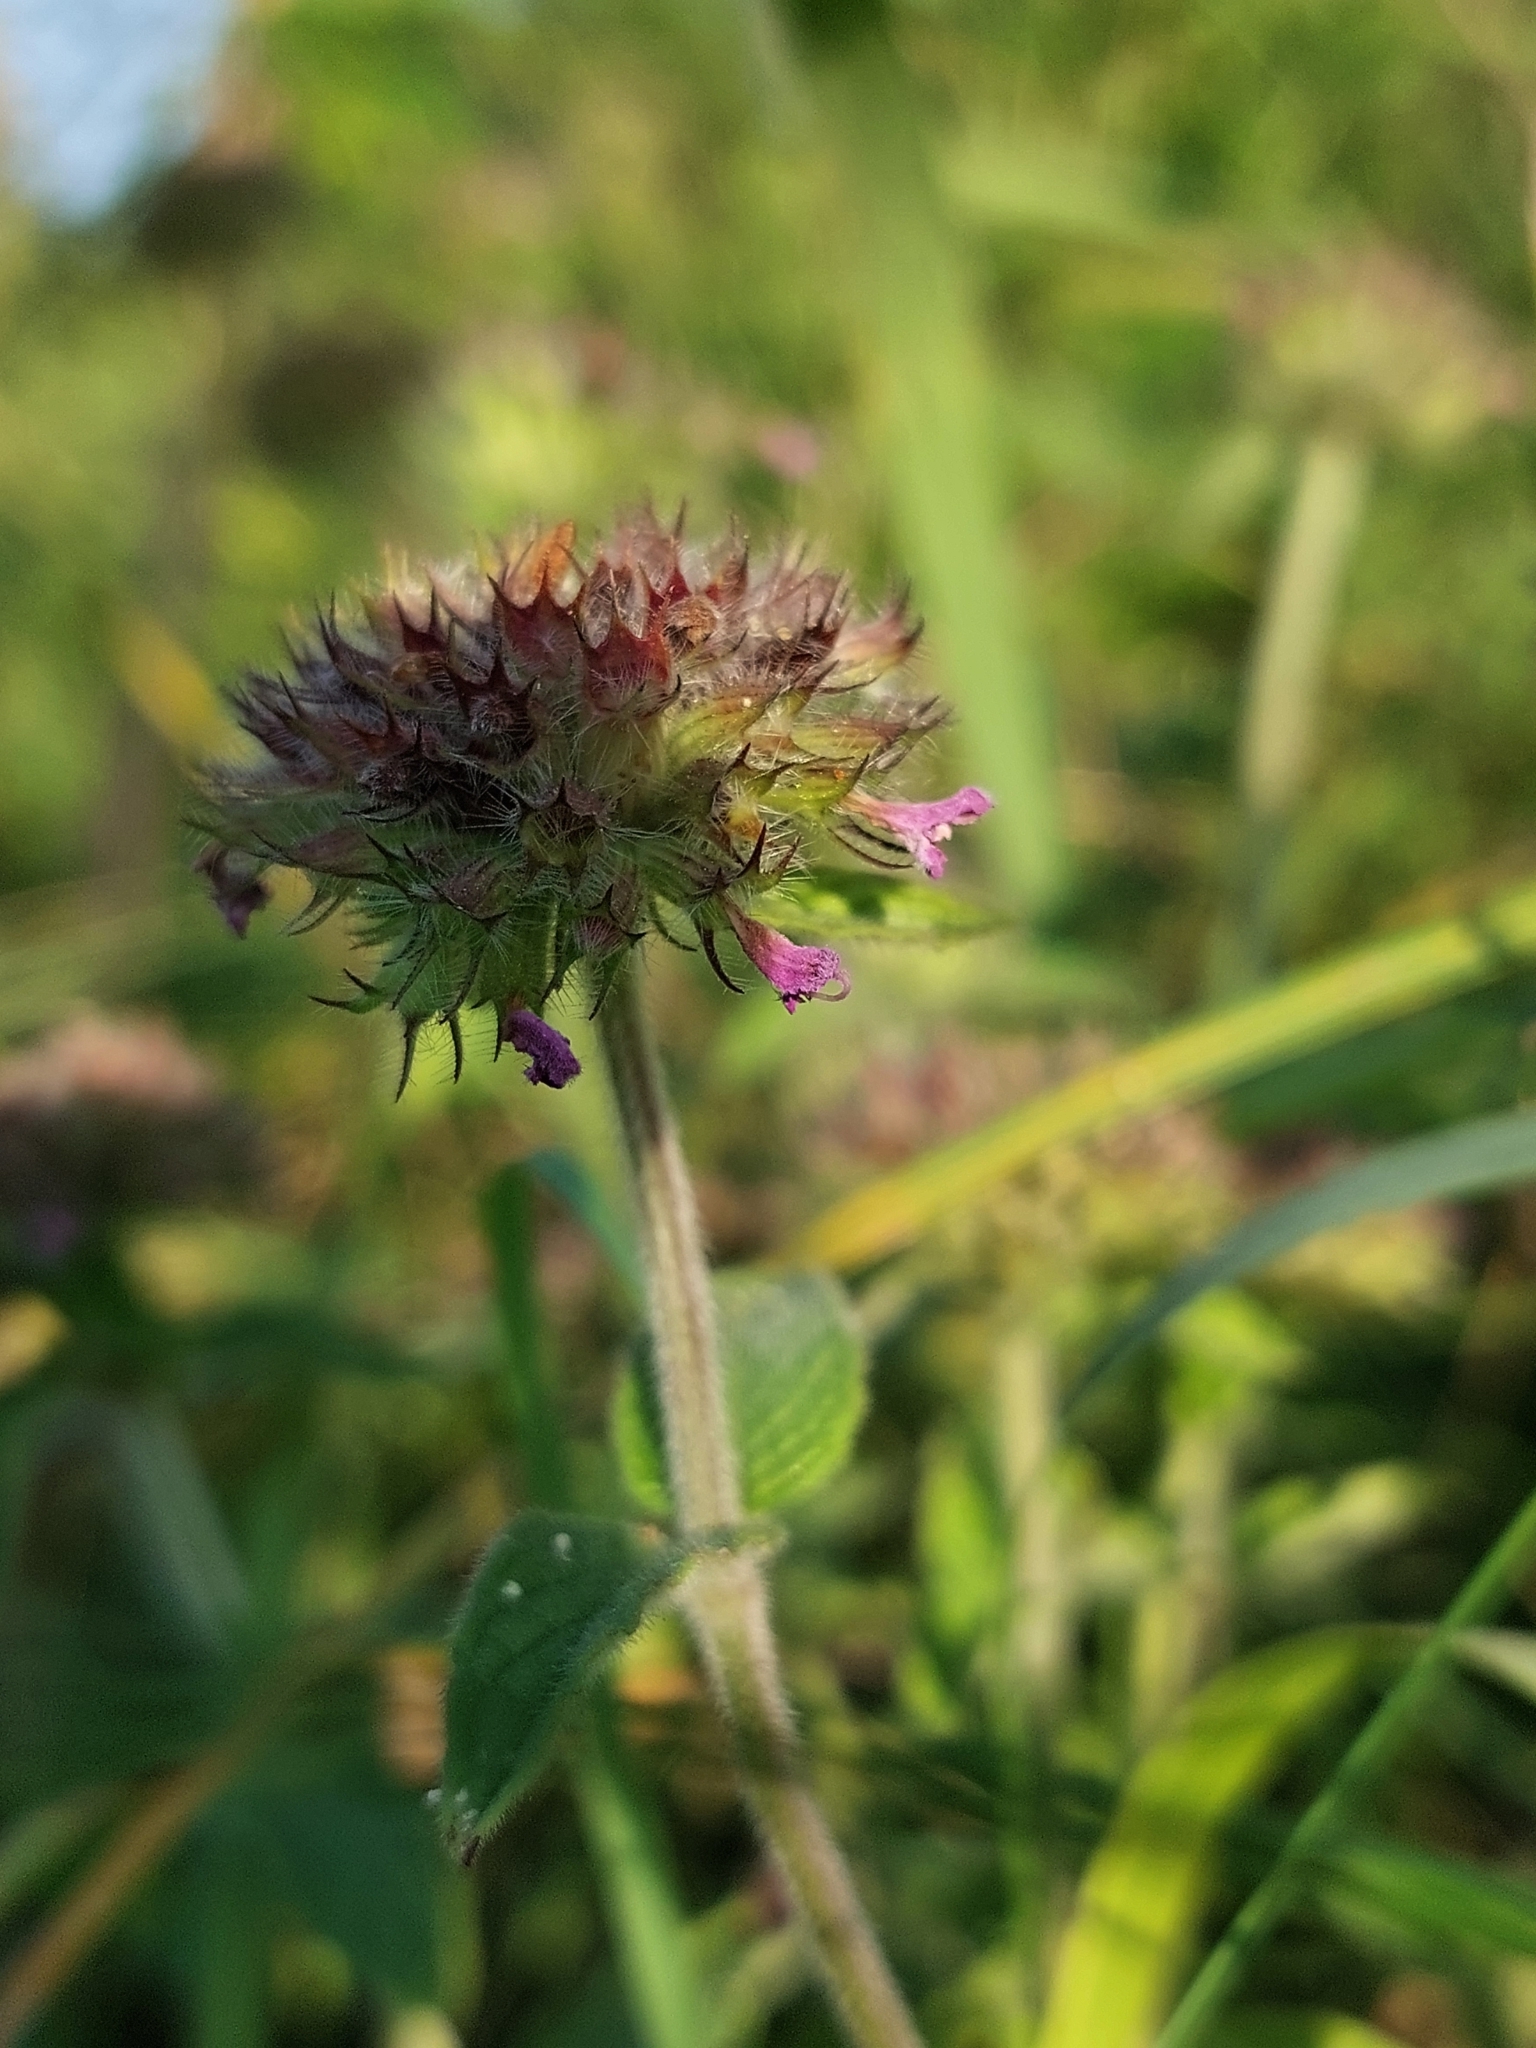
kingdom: Plantae
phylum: Tracheophyta
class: Magnoliopsida
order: Lamiales
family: Lamiaceae
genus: Clinopodium
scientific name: Clinopodium vulgare
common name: Wild basil
